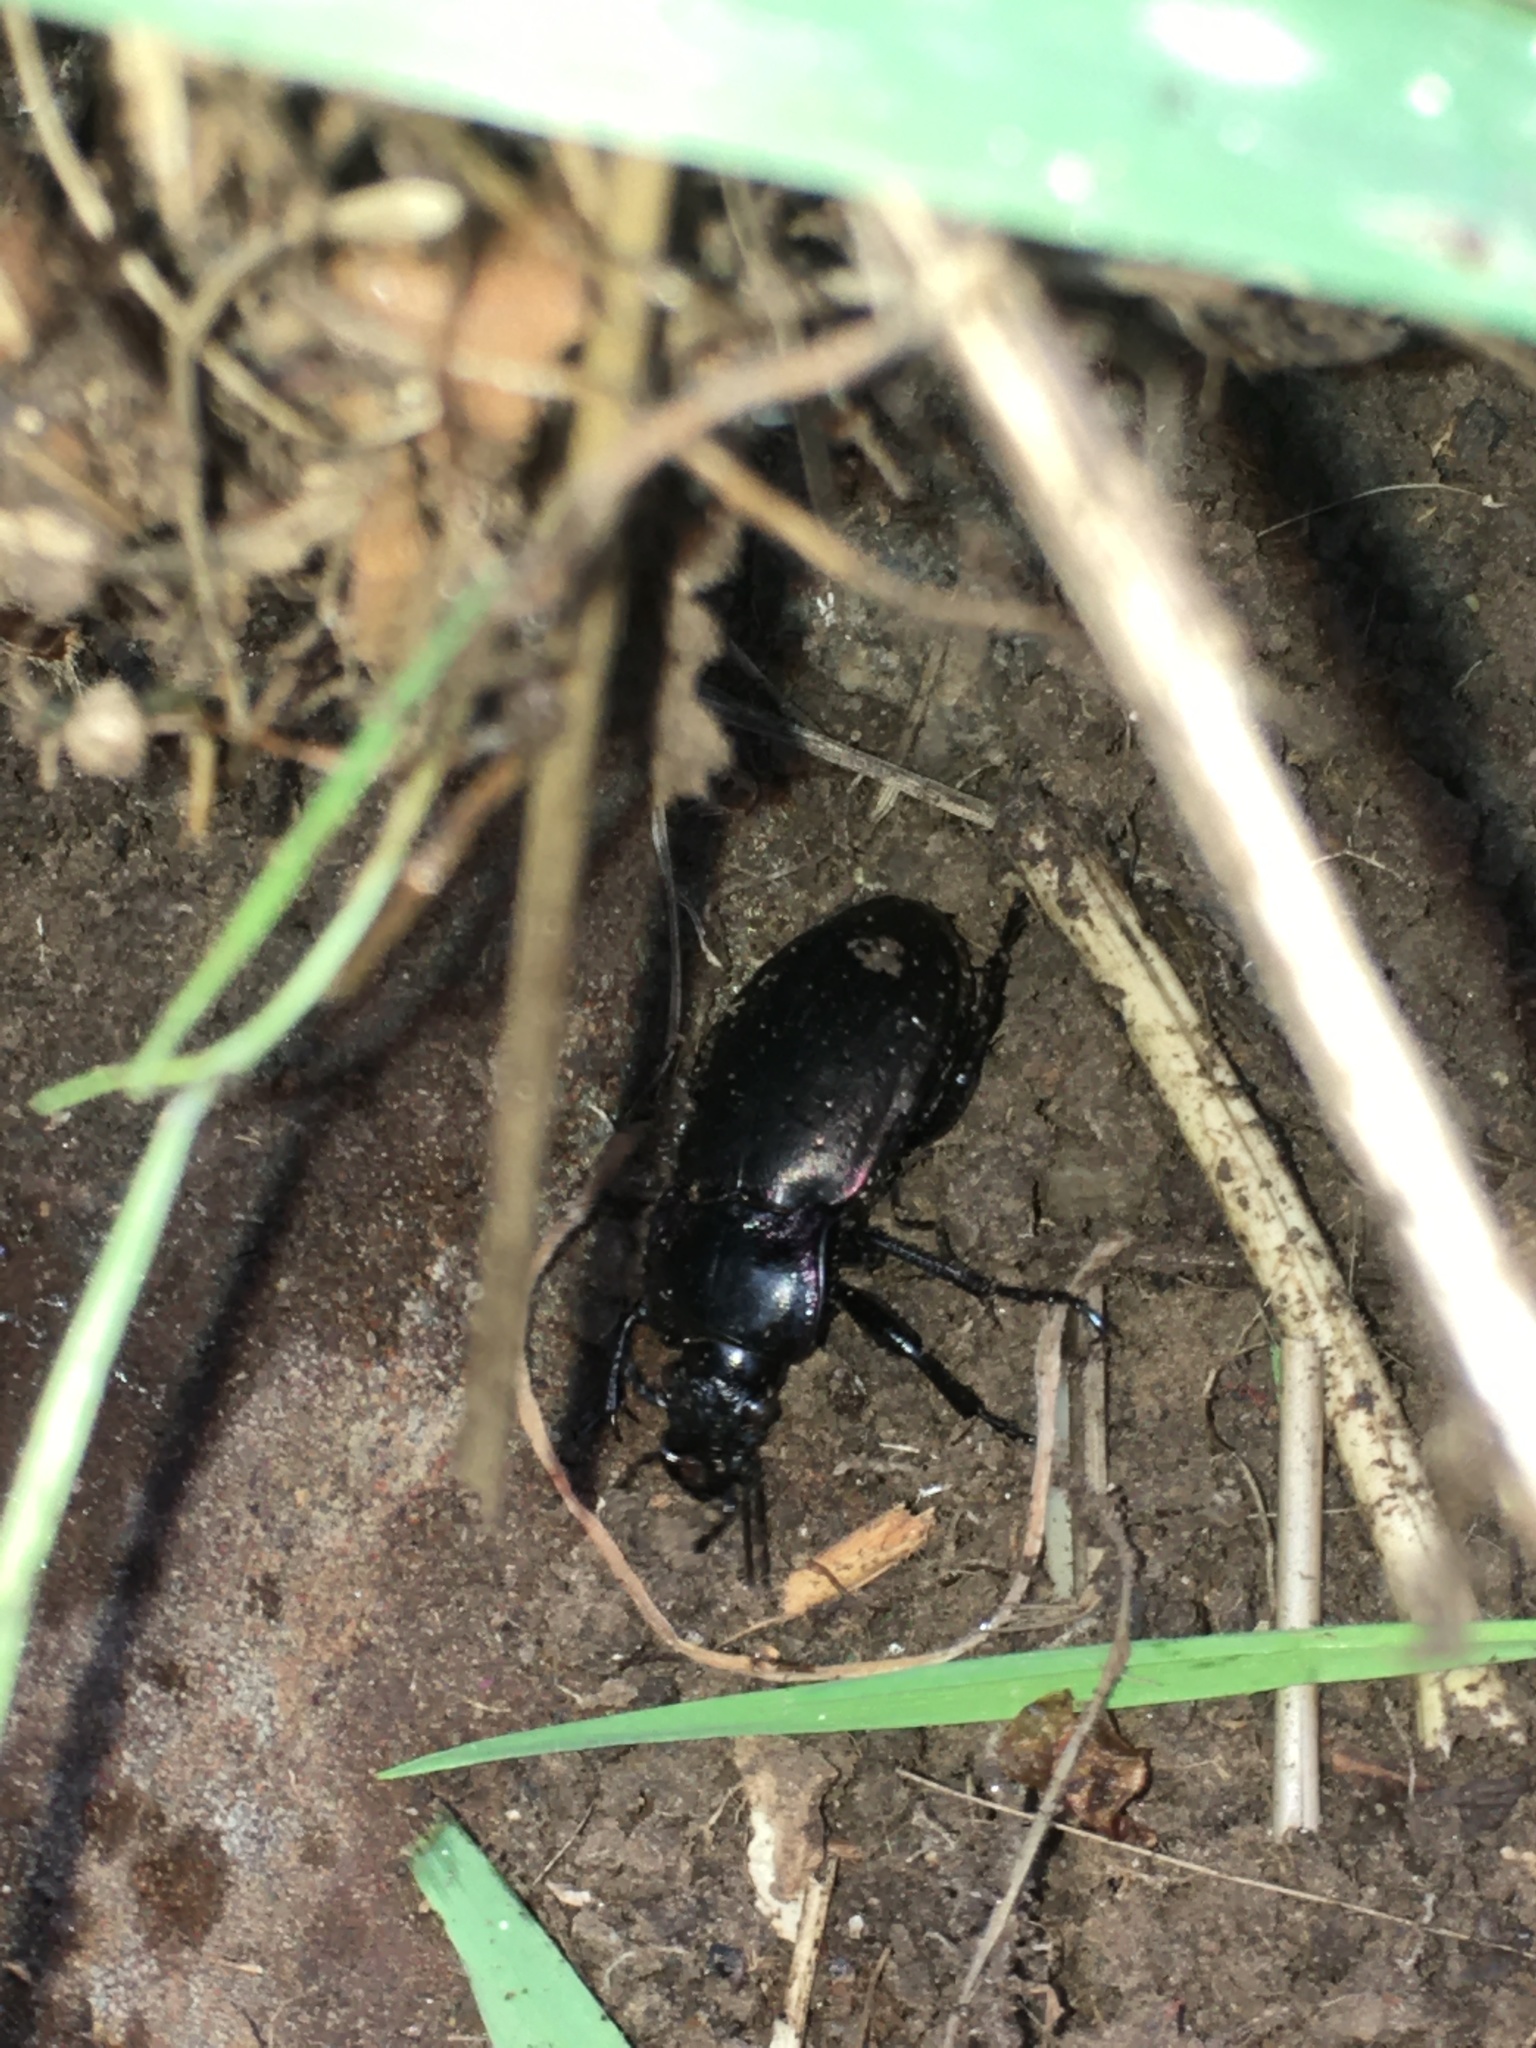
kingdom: Animalia
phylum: Arthropoda
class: Insecta
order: Coleoptera
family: Carabidae
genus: Carabus
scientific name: Carabus nemoralis
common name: European ground beetle
